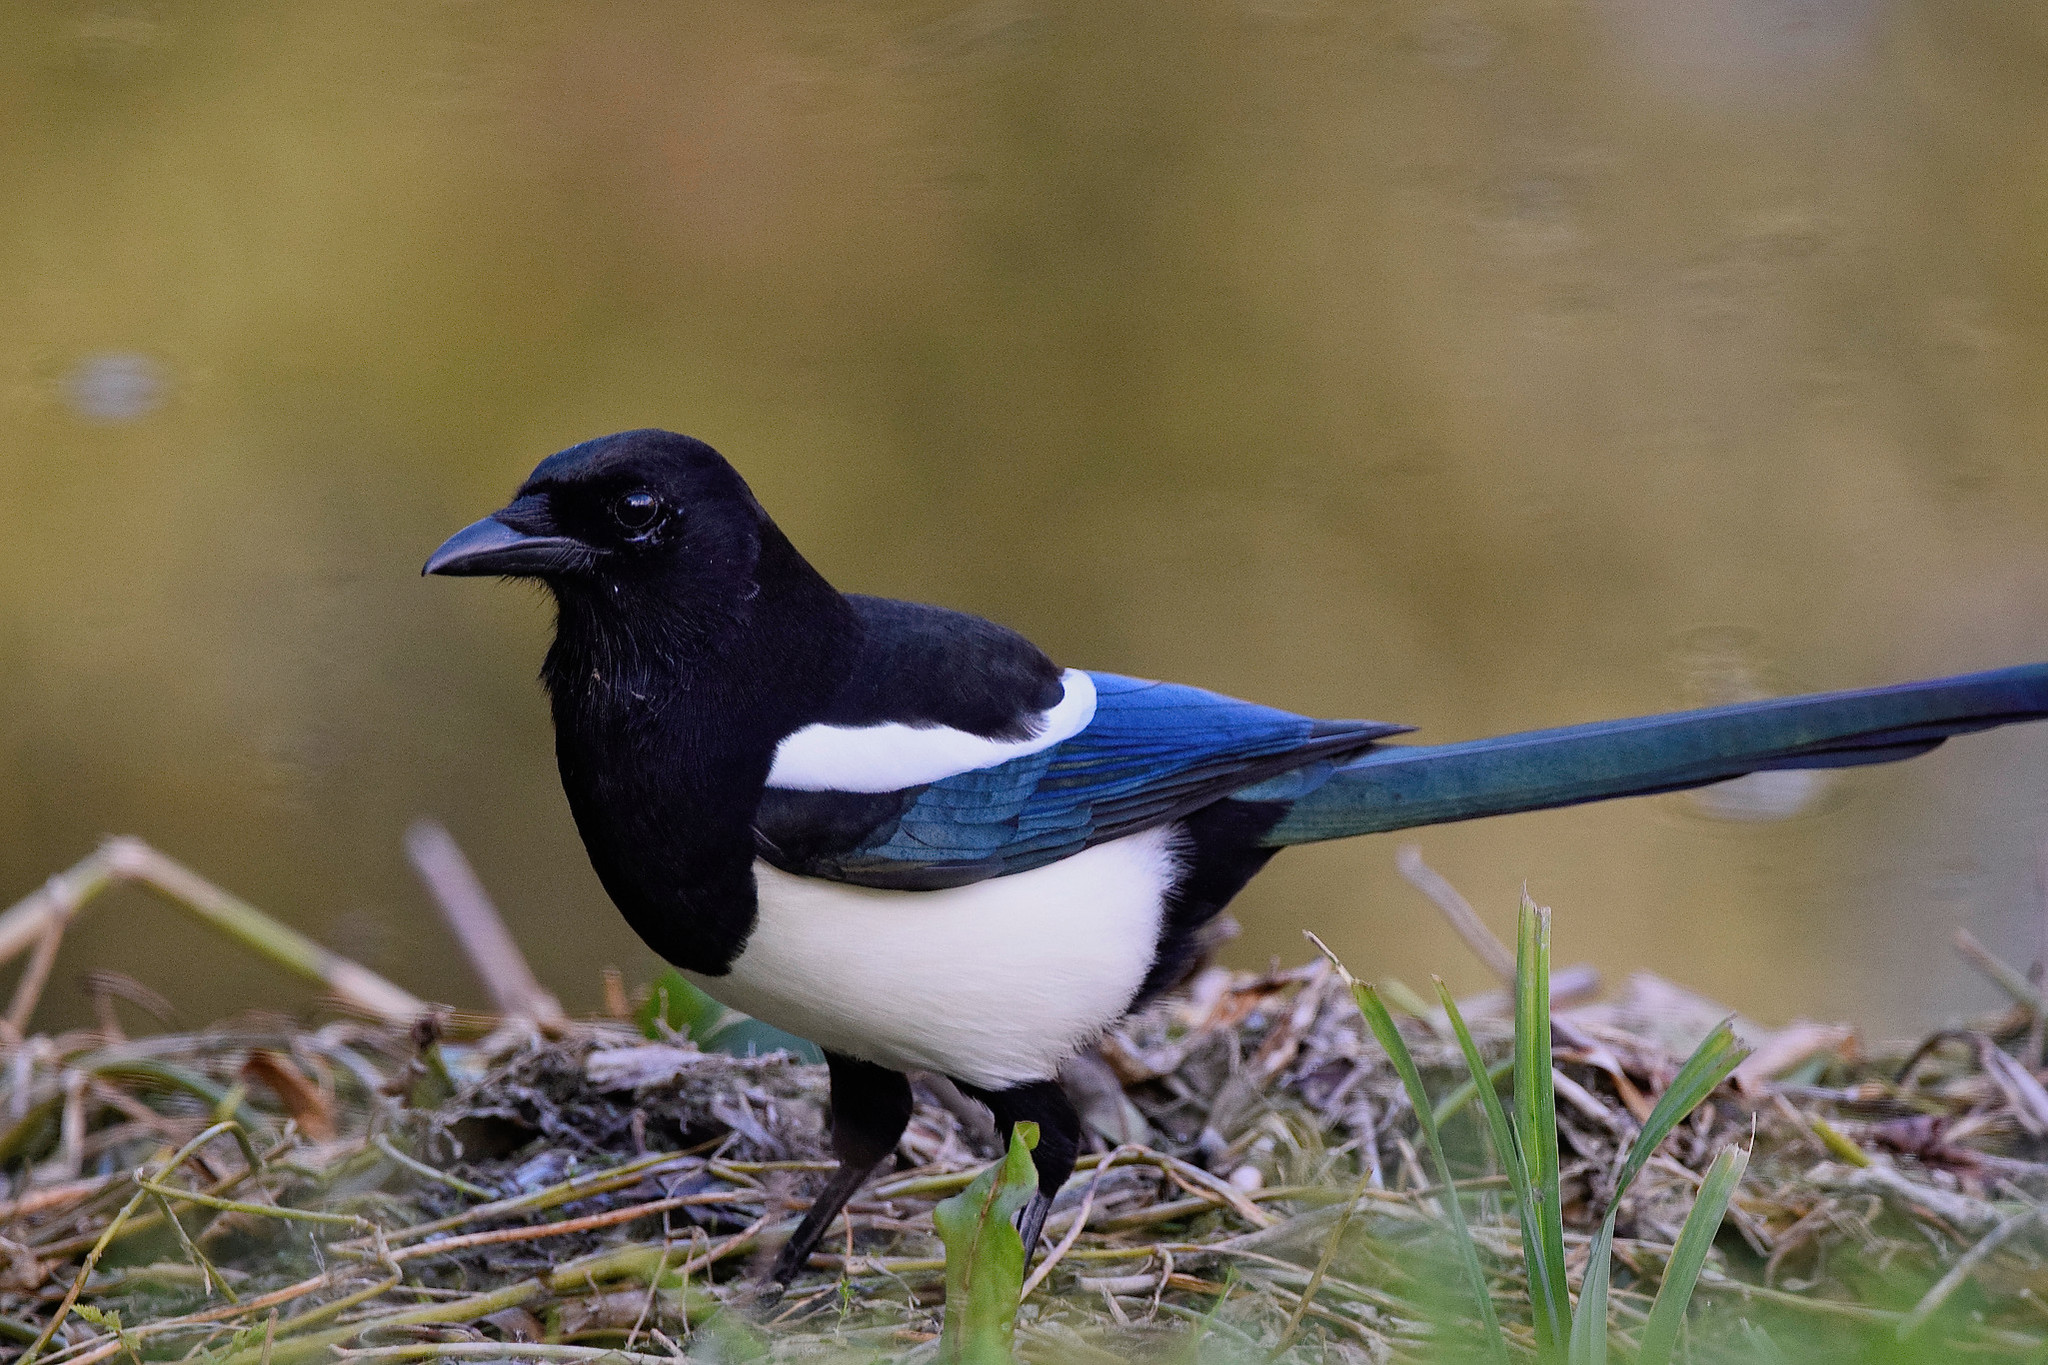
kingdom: Animalia
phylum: Chordata
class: Aves
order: Passeriformes
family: Corvidae
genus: Pica
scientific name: Pica pica
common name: Eurasian magpie
